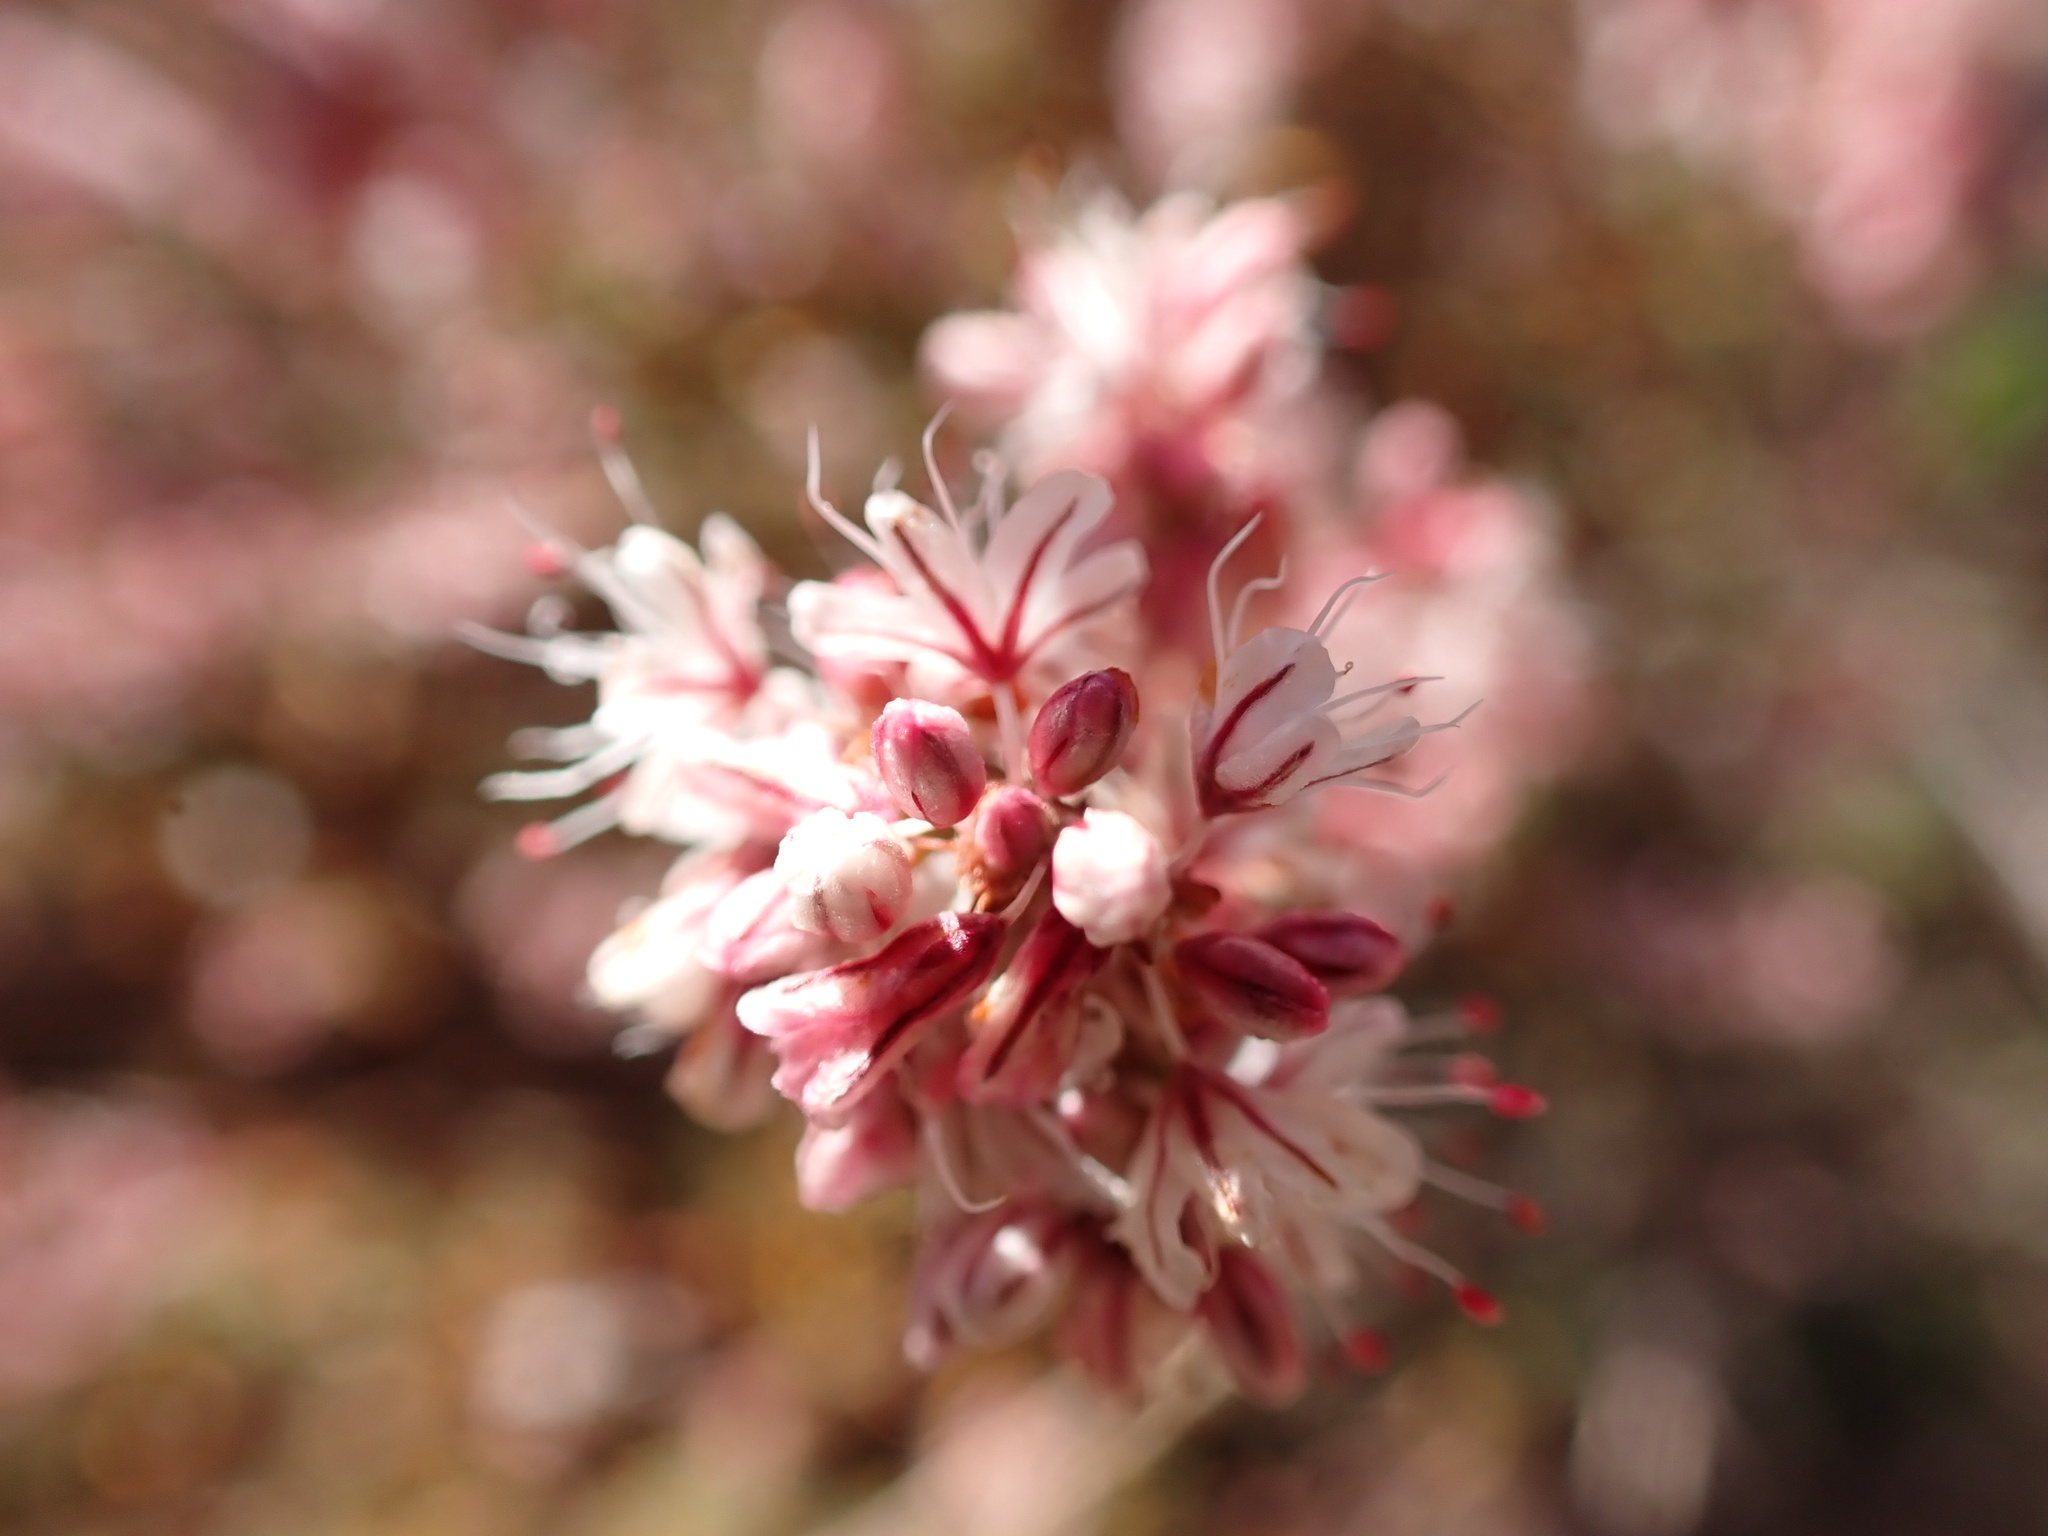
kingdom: Plantae
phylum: Tracheophyta
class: Magnoliopsida
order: Caryophyllales
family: Polygonaceae
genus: Eriogonum
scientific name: Eriogonum wrightii
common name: Bastard-sage
